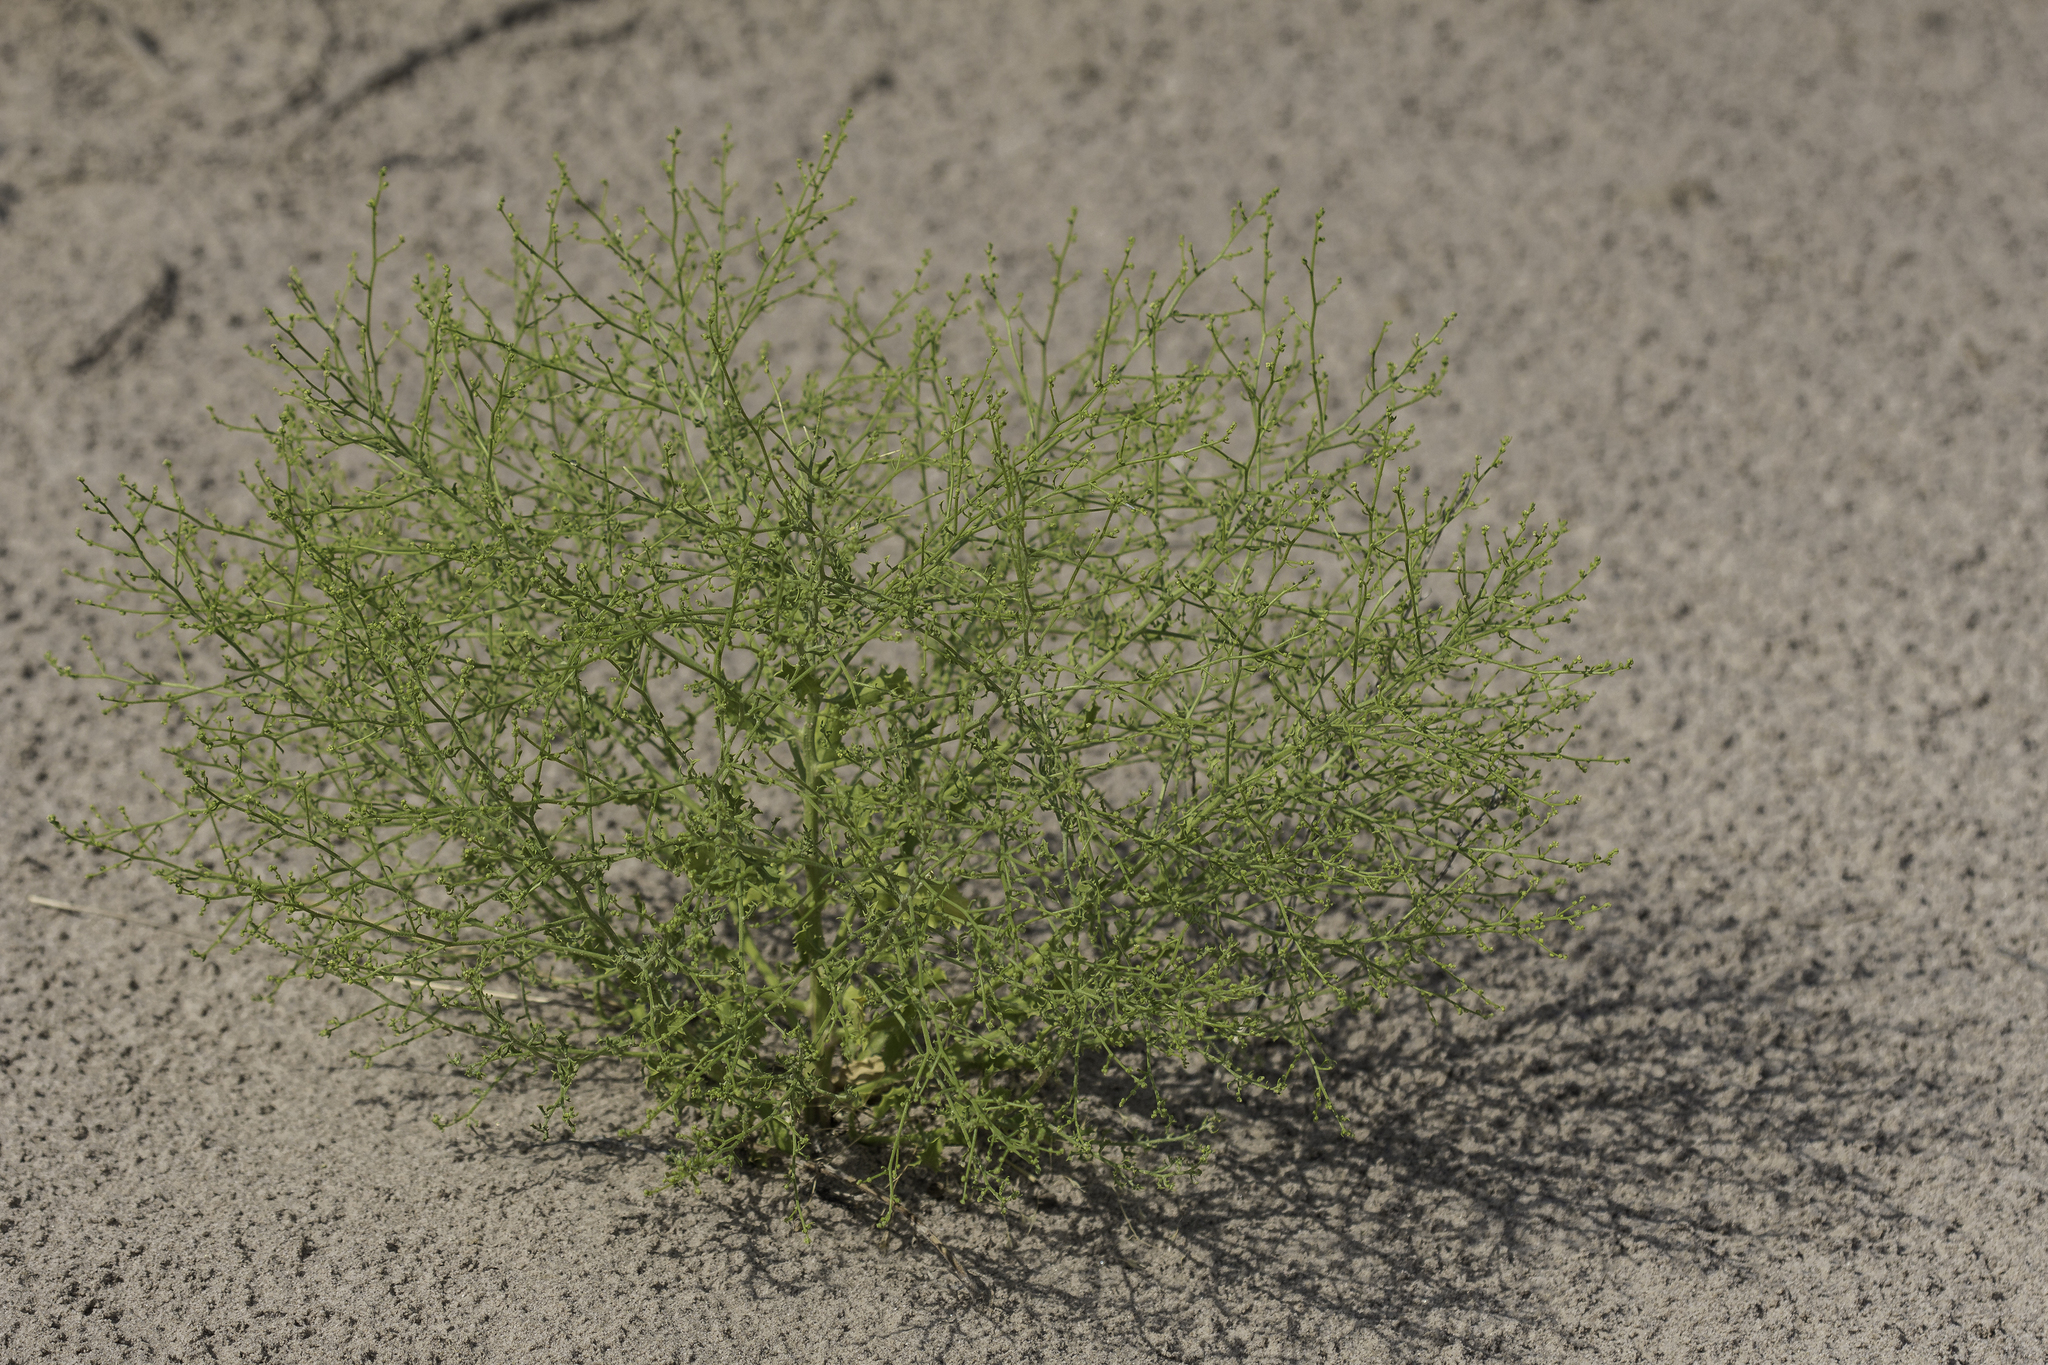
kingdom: Plantae
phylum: Tracheophyta
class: Magnoliopsida
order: Caryophyllales
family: Amaranthaceae
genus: Dysphania
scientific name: Dysphania atriplicifolia
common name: Plains tumbleweed
